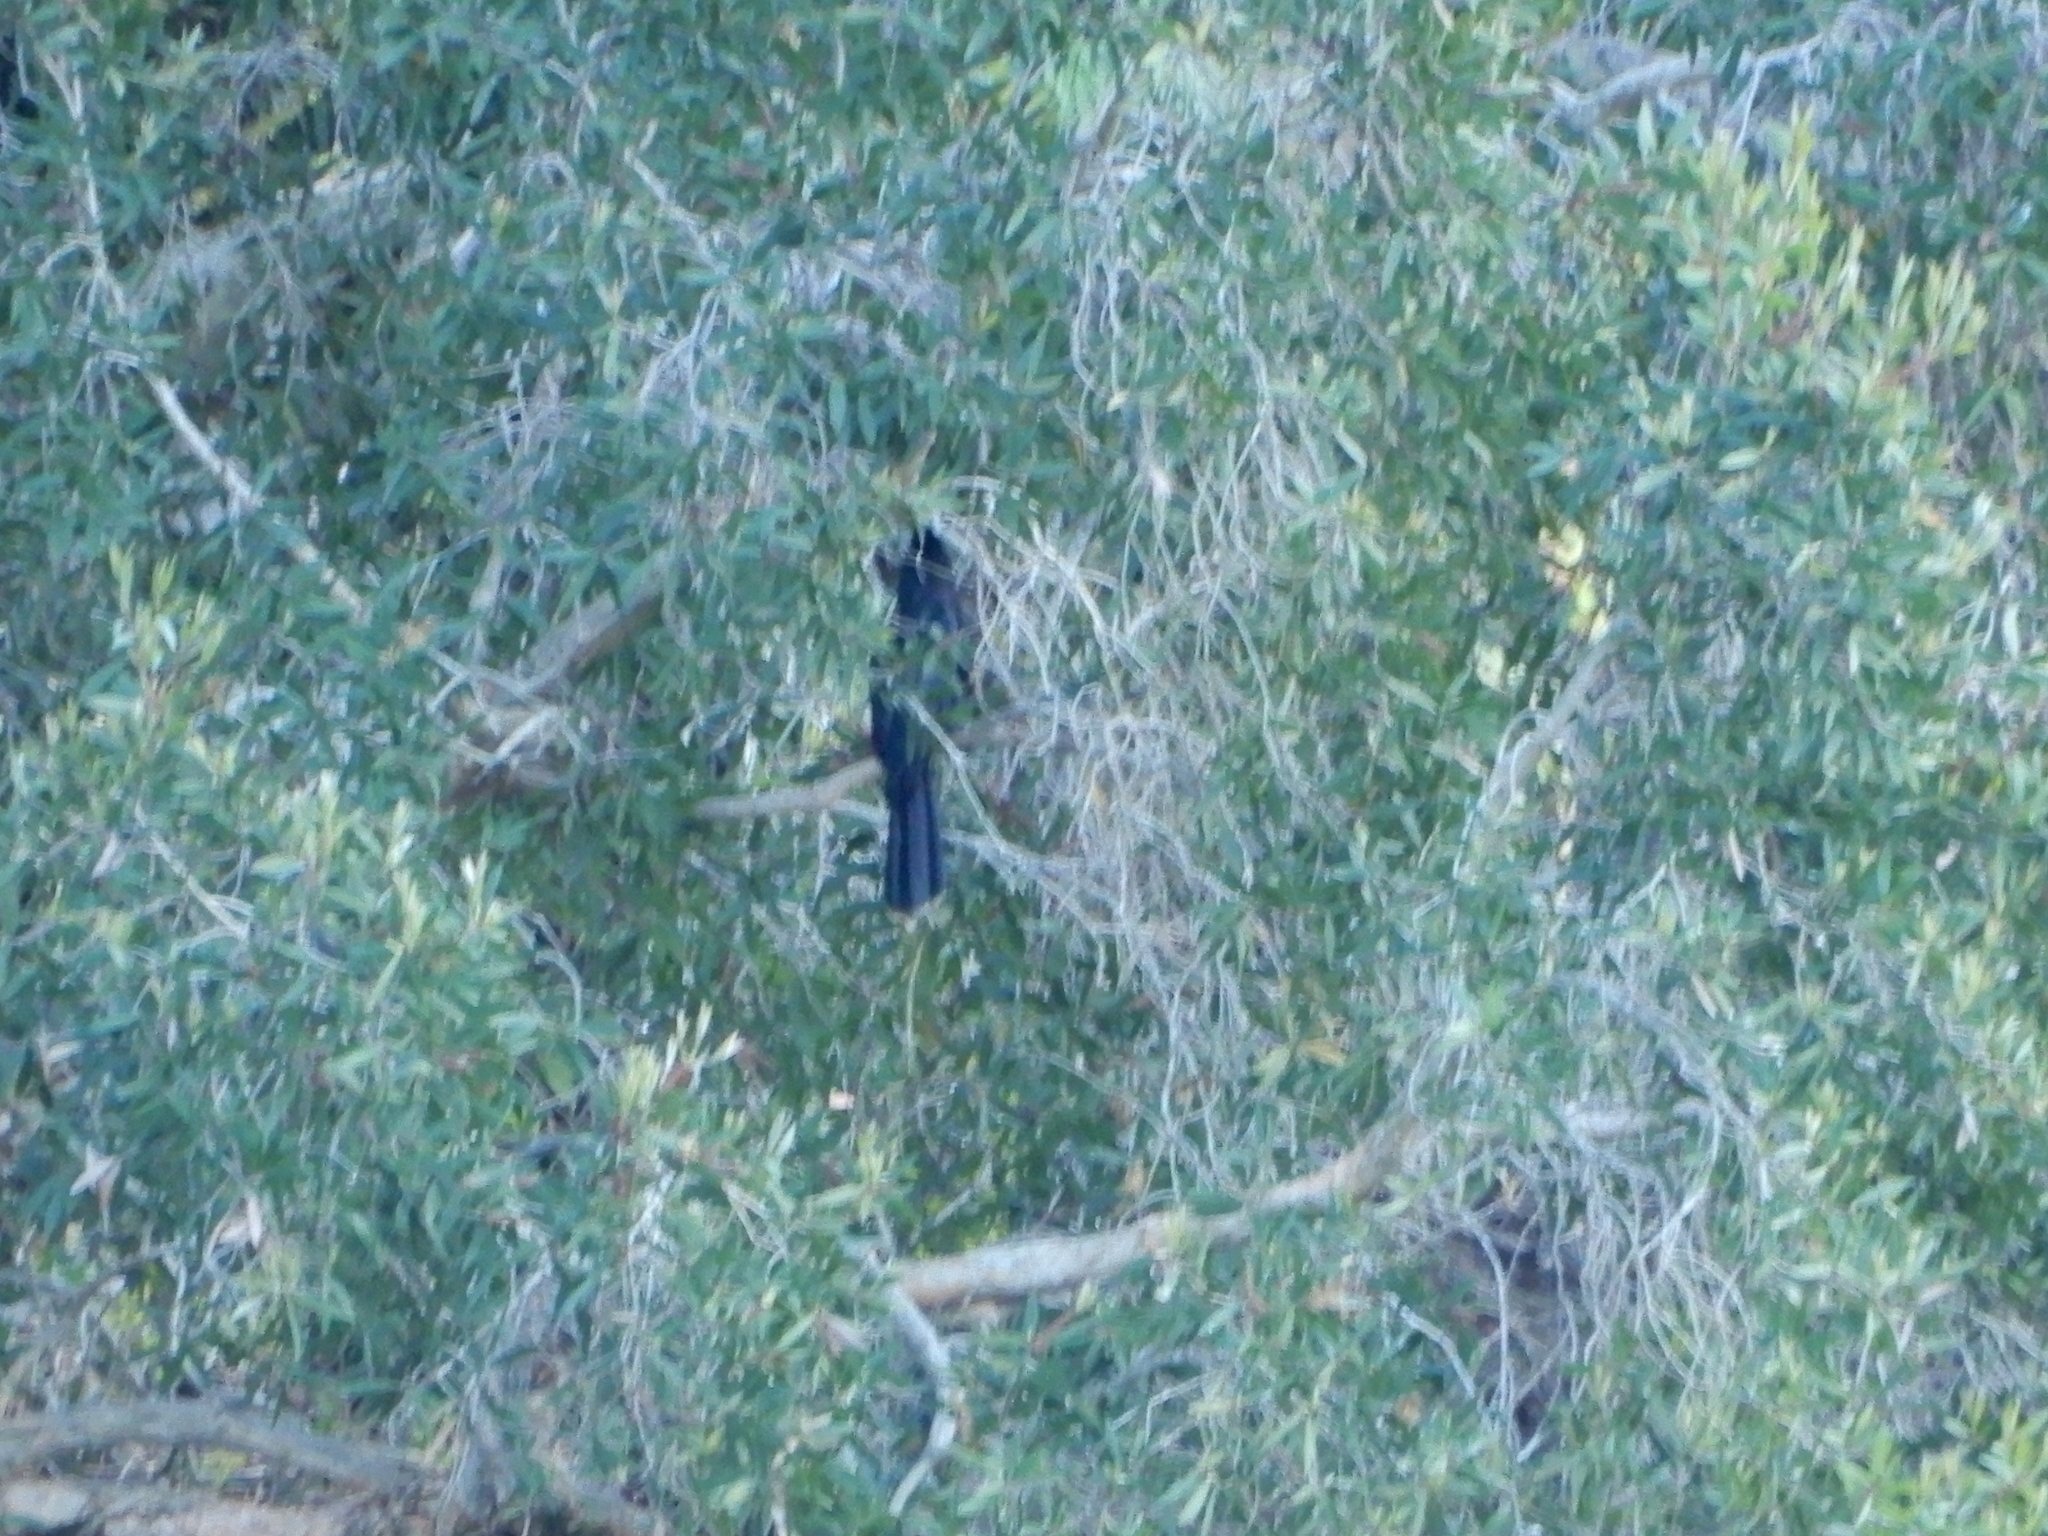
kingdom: Animalia
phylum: Chordata
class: Aves
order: Suliformes
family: Anhingidae
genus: Anhinga
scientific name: Anhinga anhinga
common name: Anhinga
